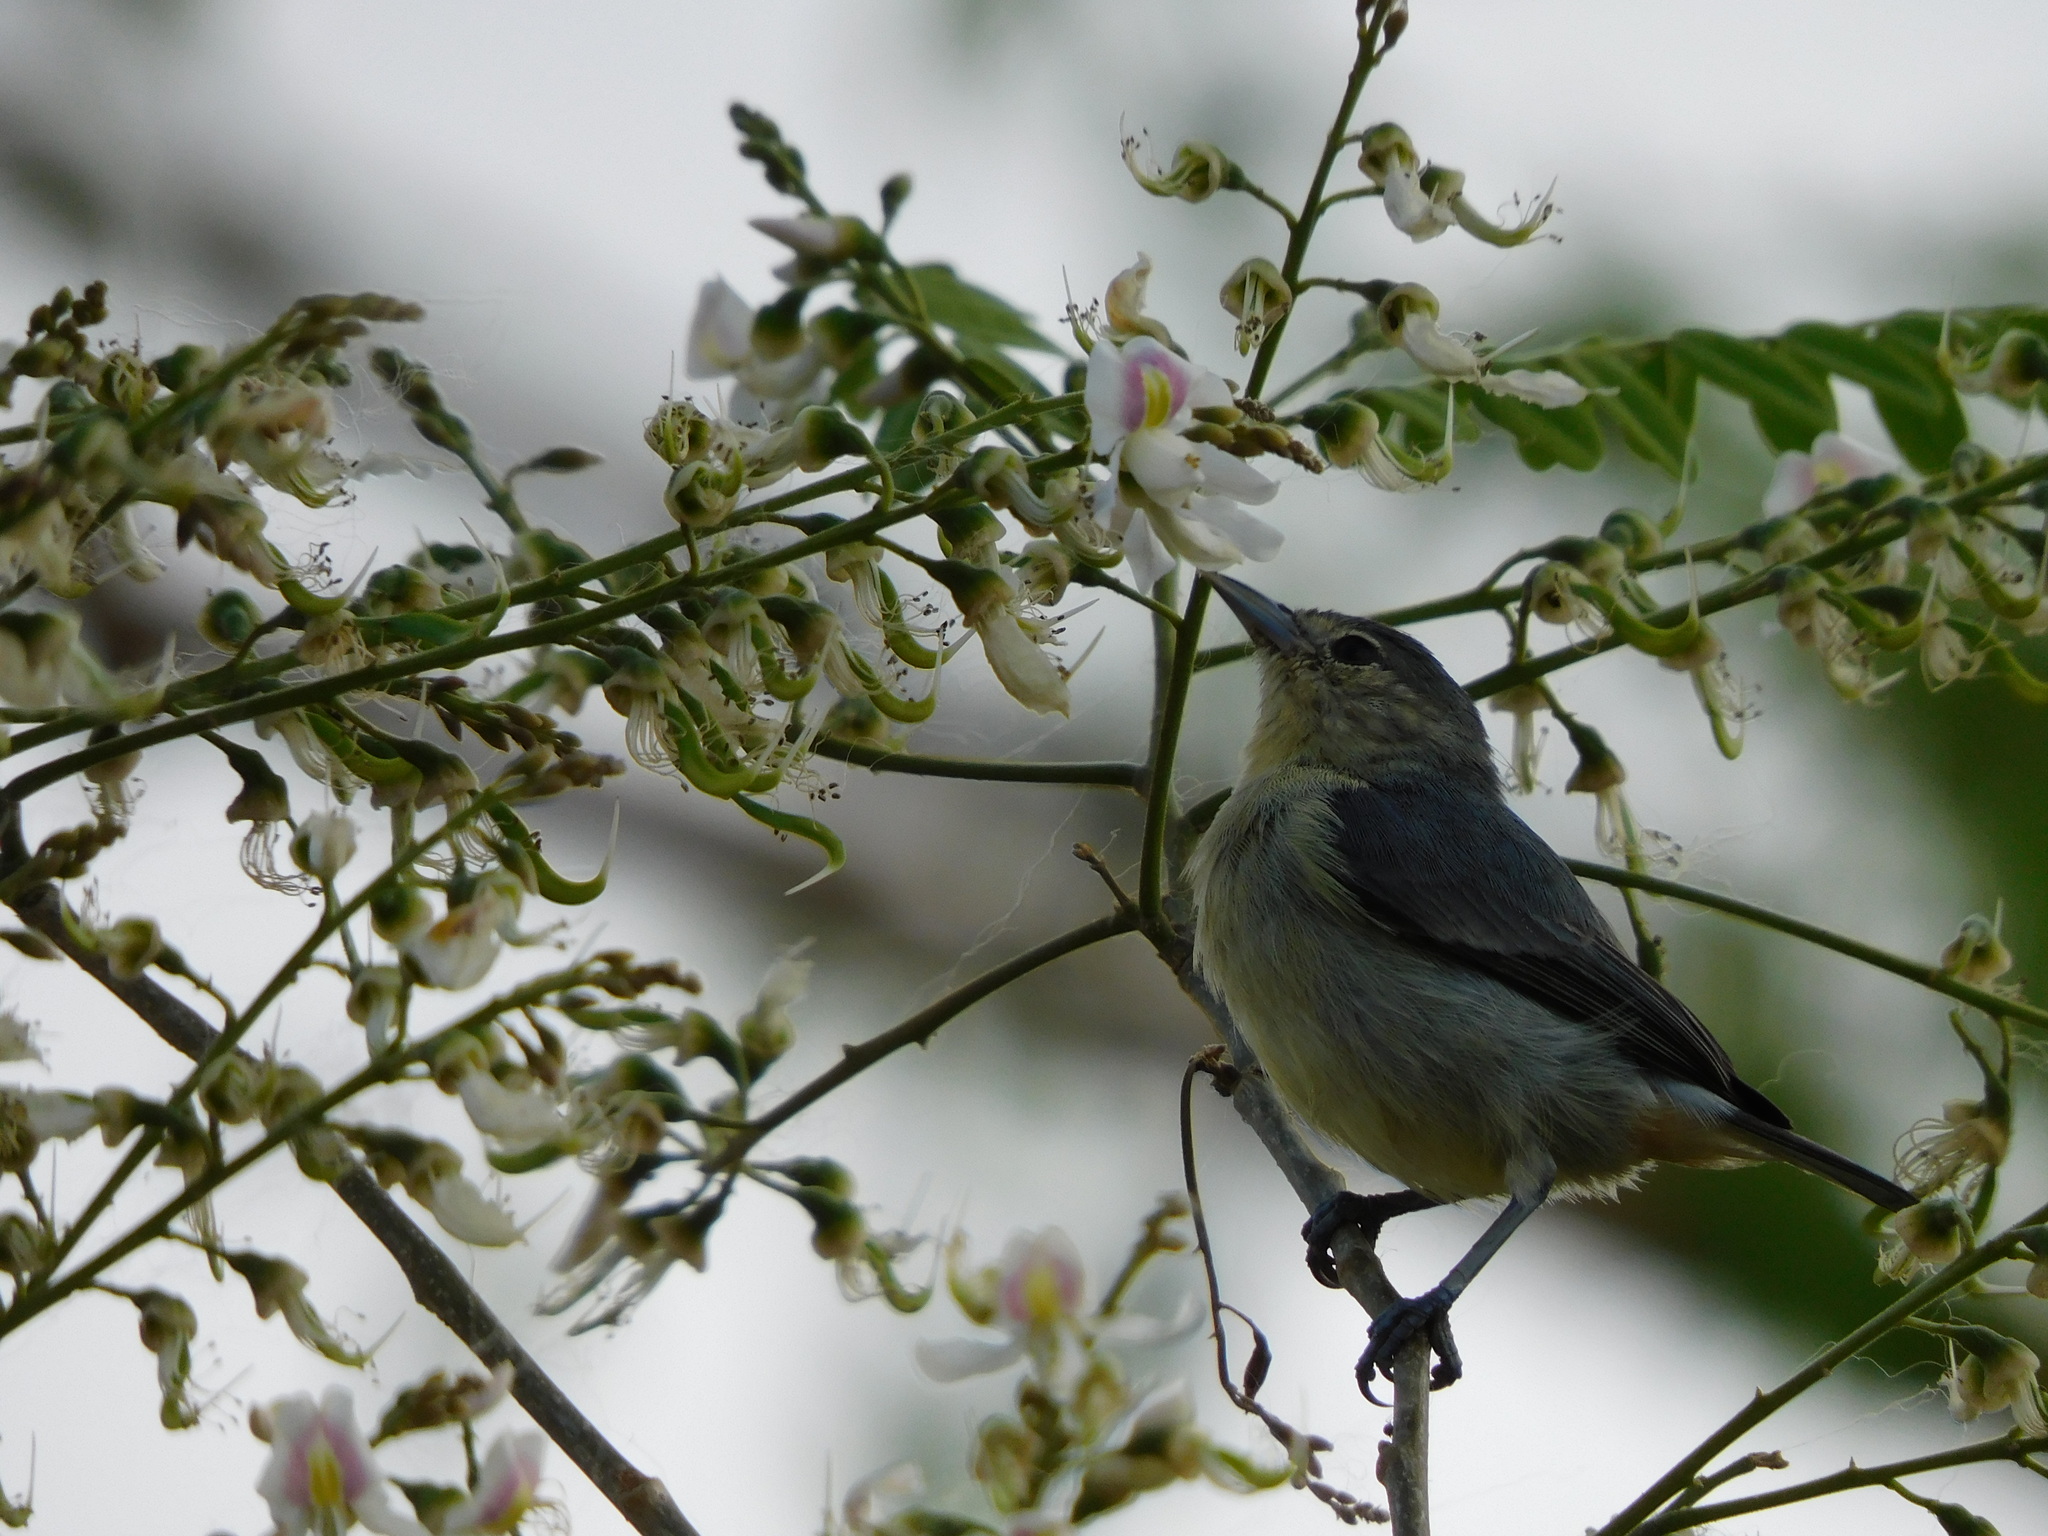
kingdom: Animalia
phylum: Chordata
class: Aves
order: Passeriformes
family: Thraupidae
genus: Conirostrum
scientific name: Conirostrum leucogenys
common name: White-eared conebill
